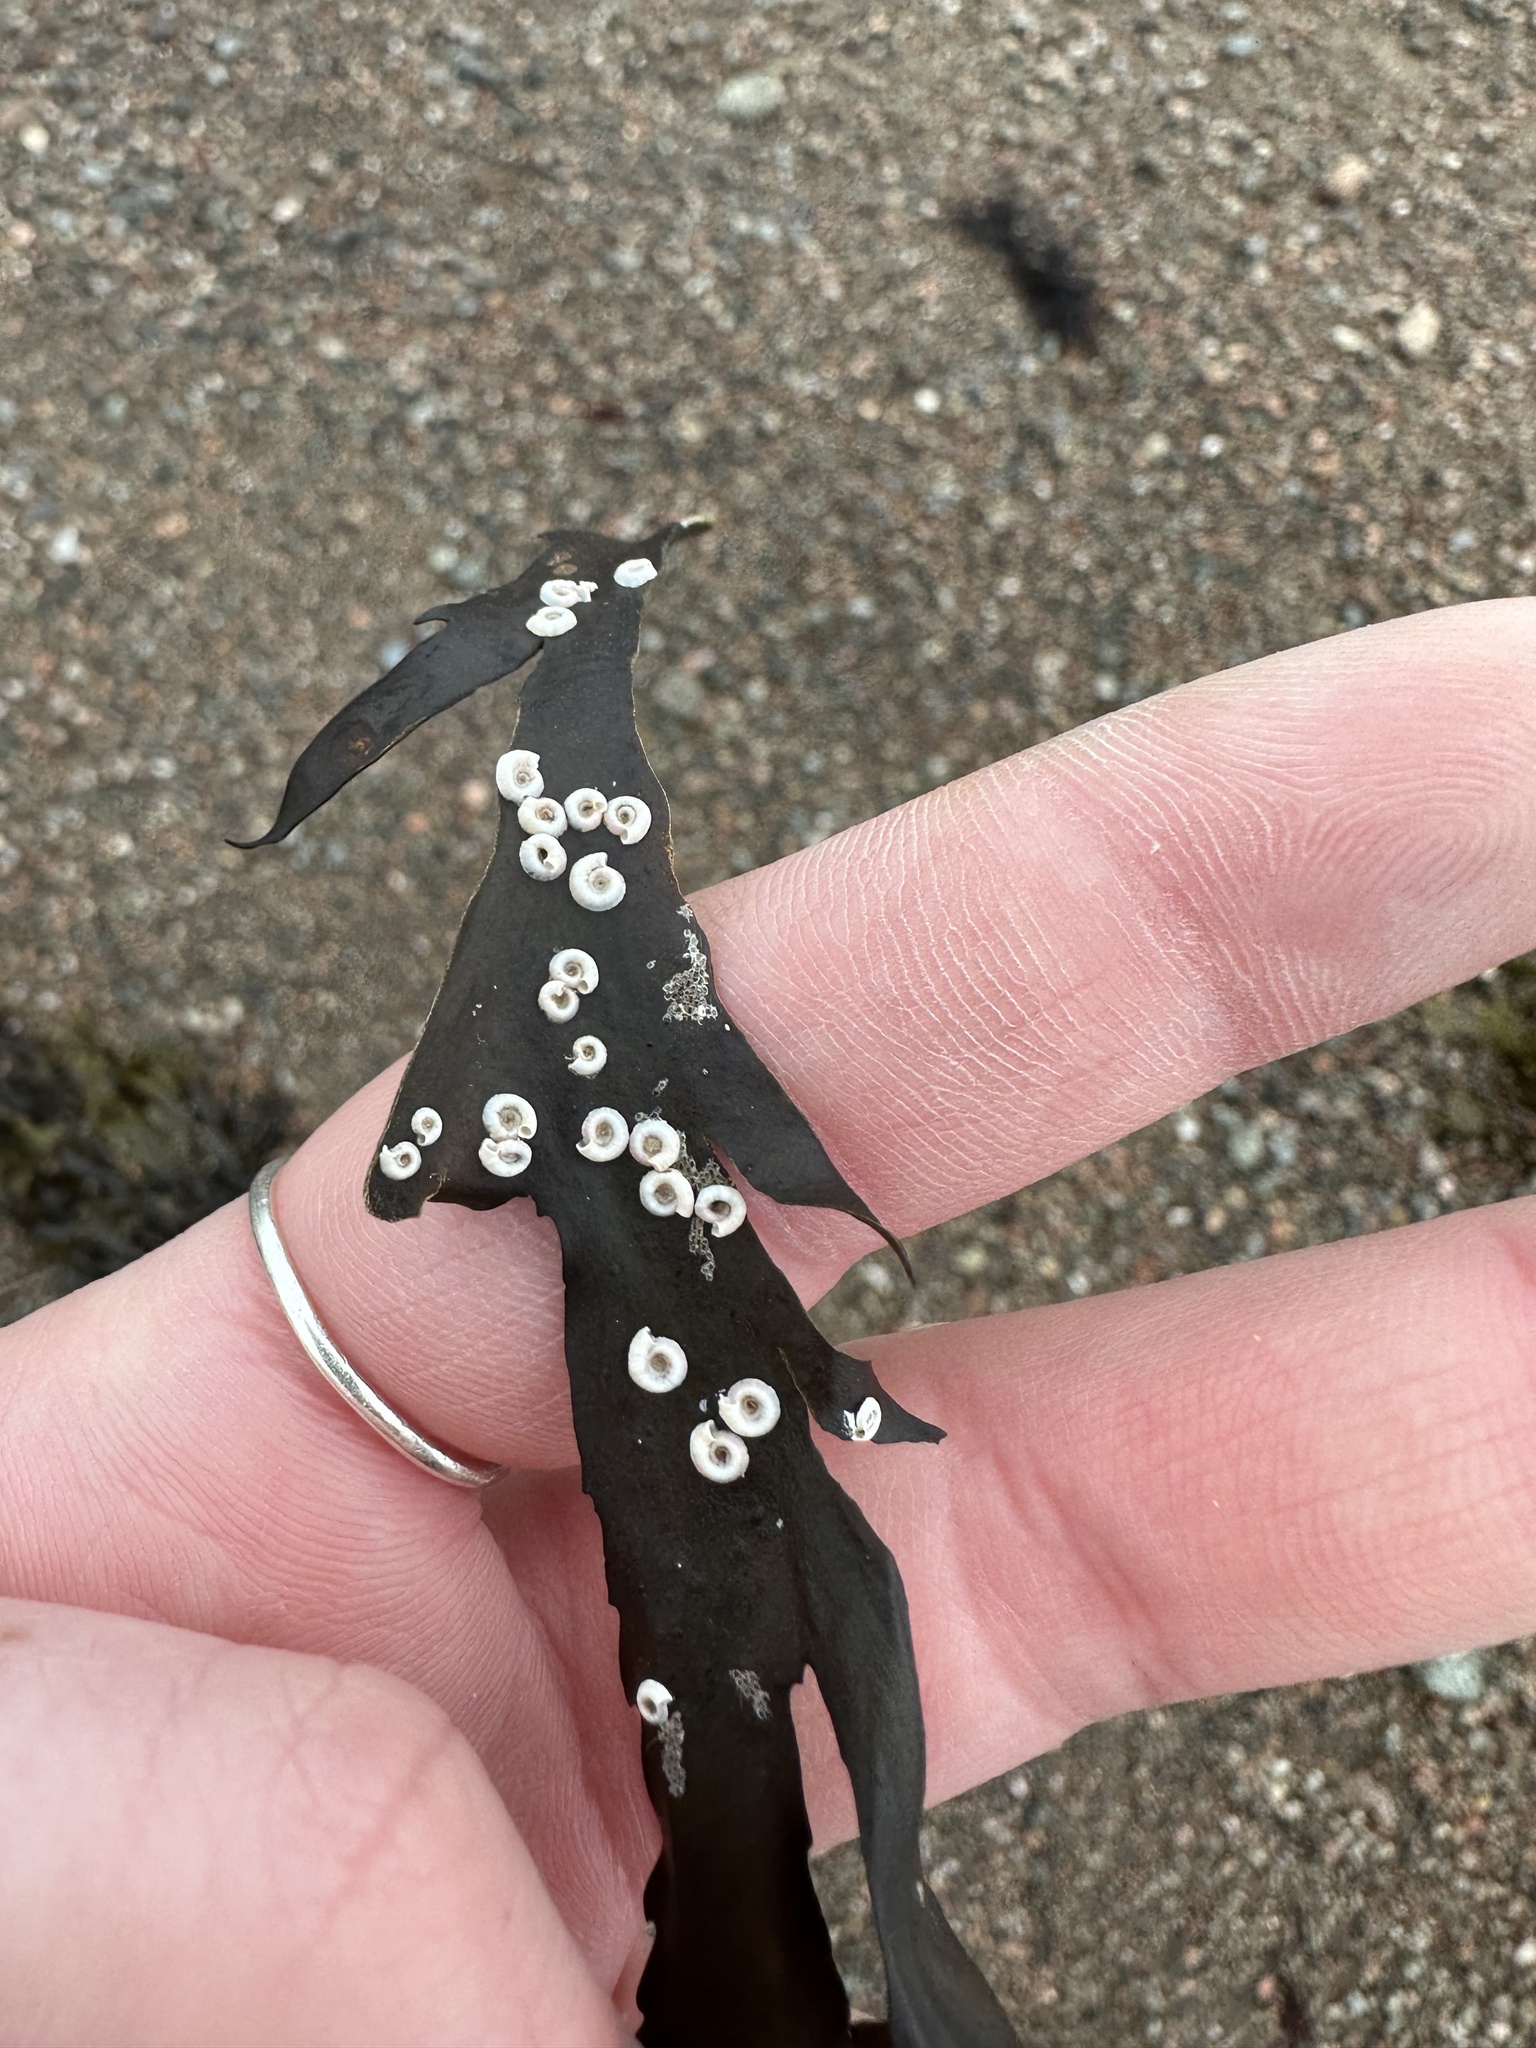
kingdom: Animalia
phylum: Annelida
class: Polychaeta
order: Sabellida
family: Serpulidae
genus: Spirorbis
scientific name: Spirorbis spirorbis
